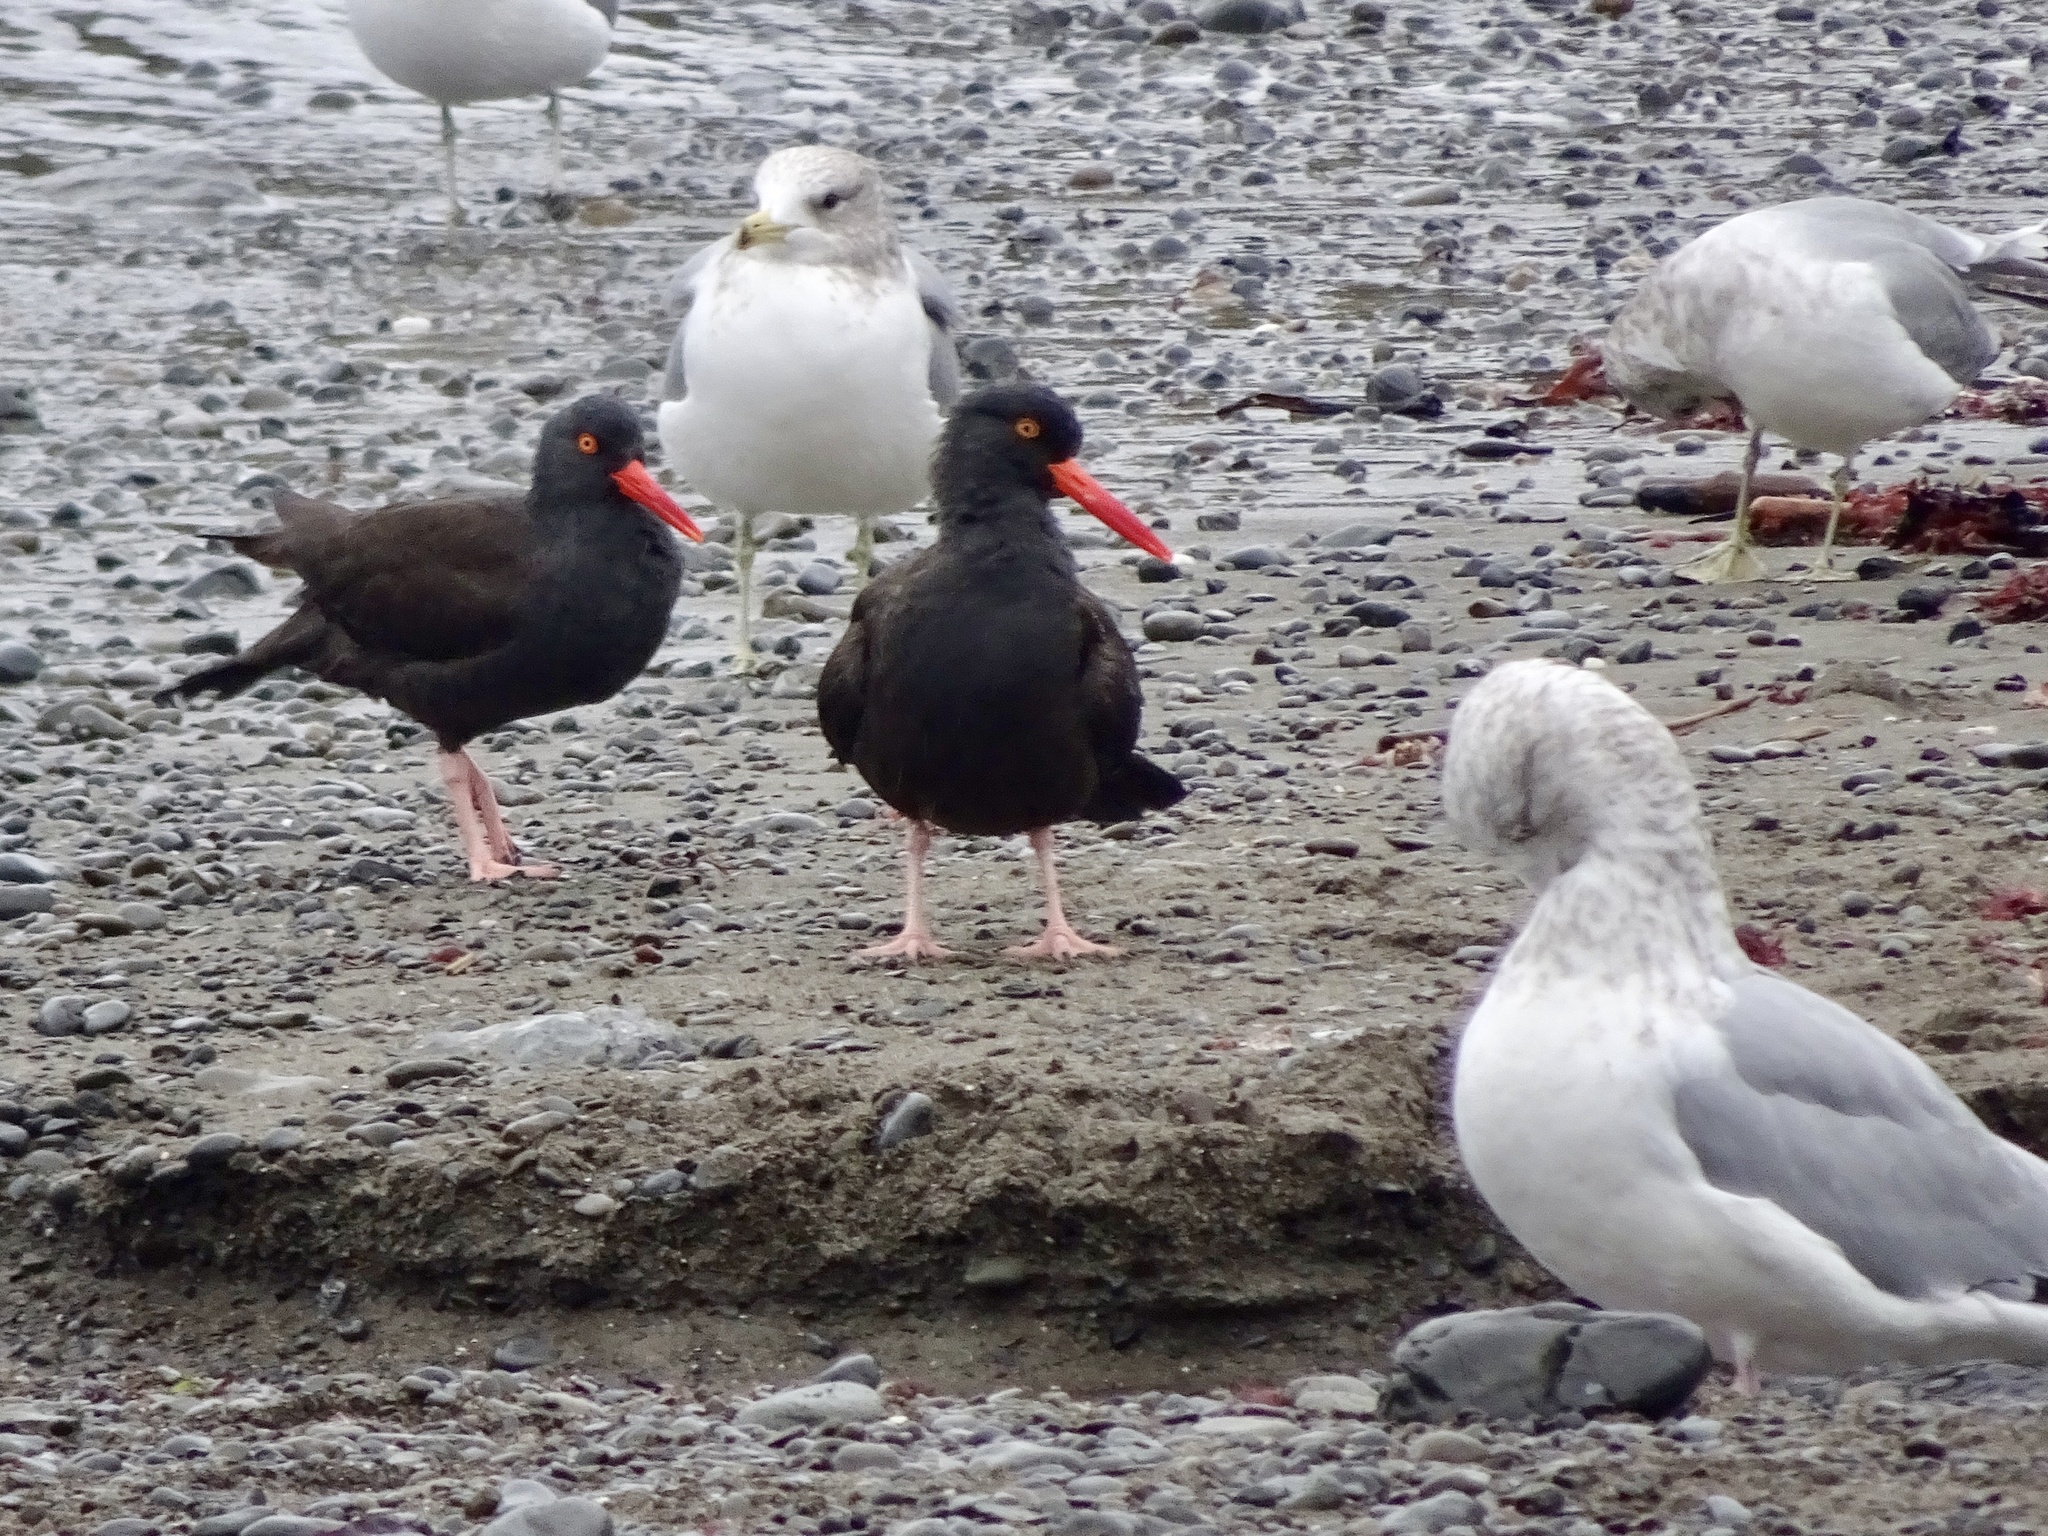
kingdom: Animalia
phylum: Chordata
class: Aves
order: Charadriiformes
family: Haematopodidae
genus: Haematopus
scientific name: Haematopus bachmani
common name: Black oystercatcher
